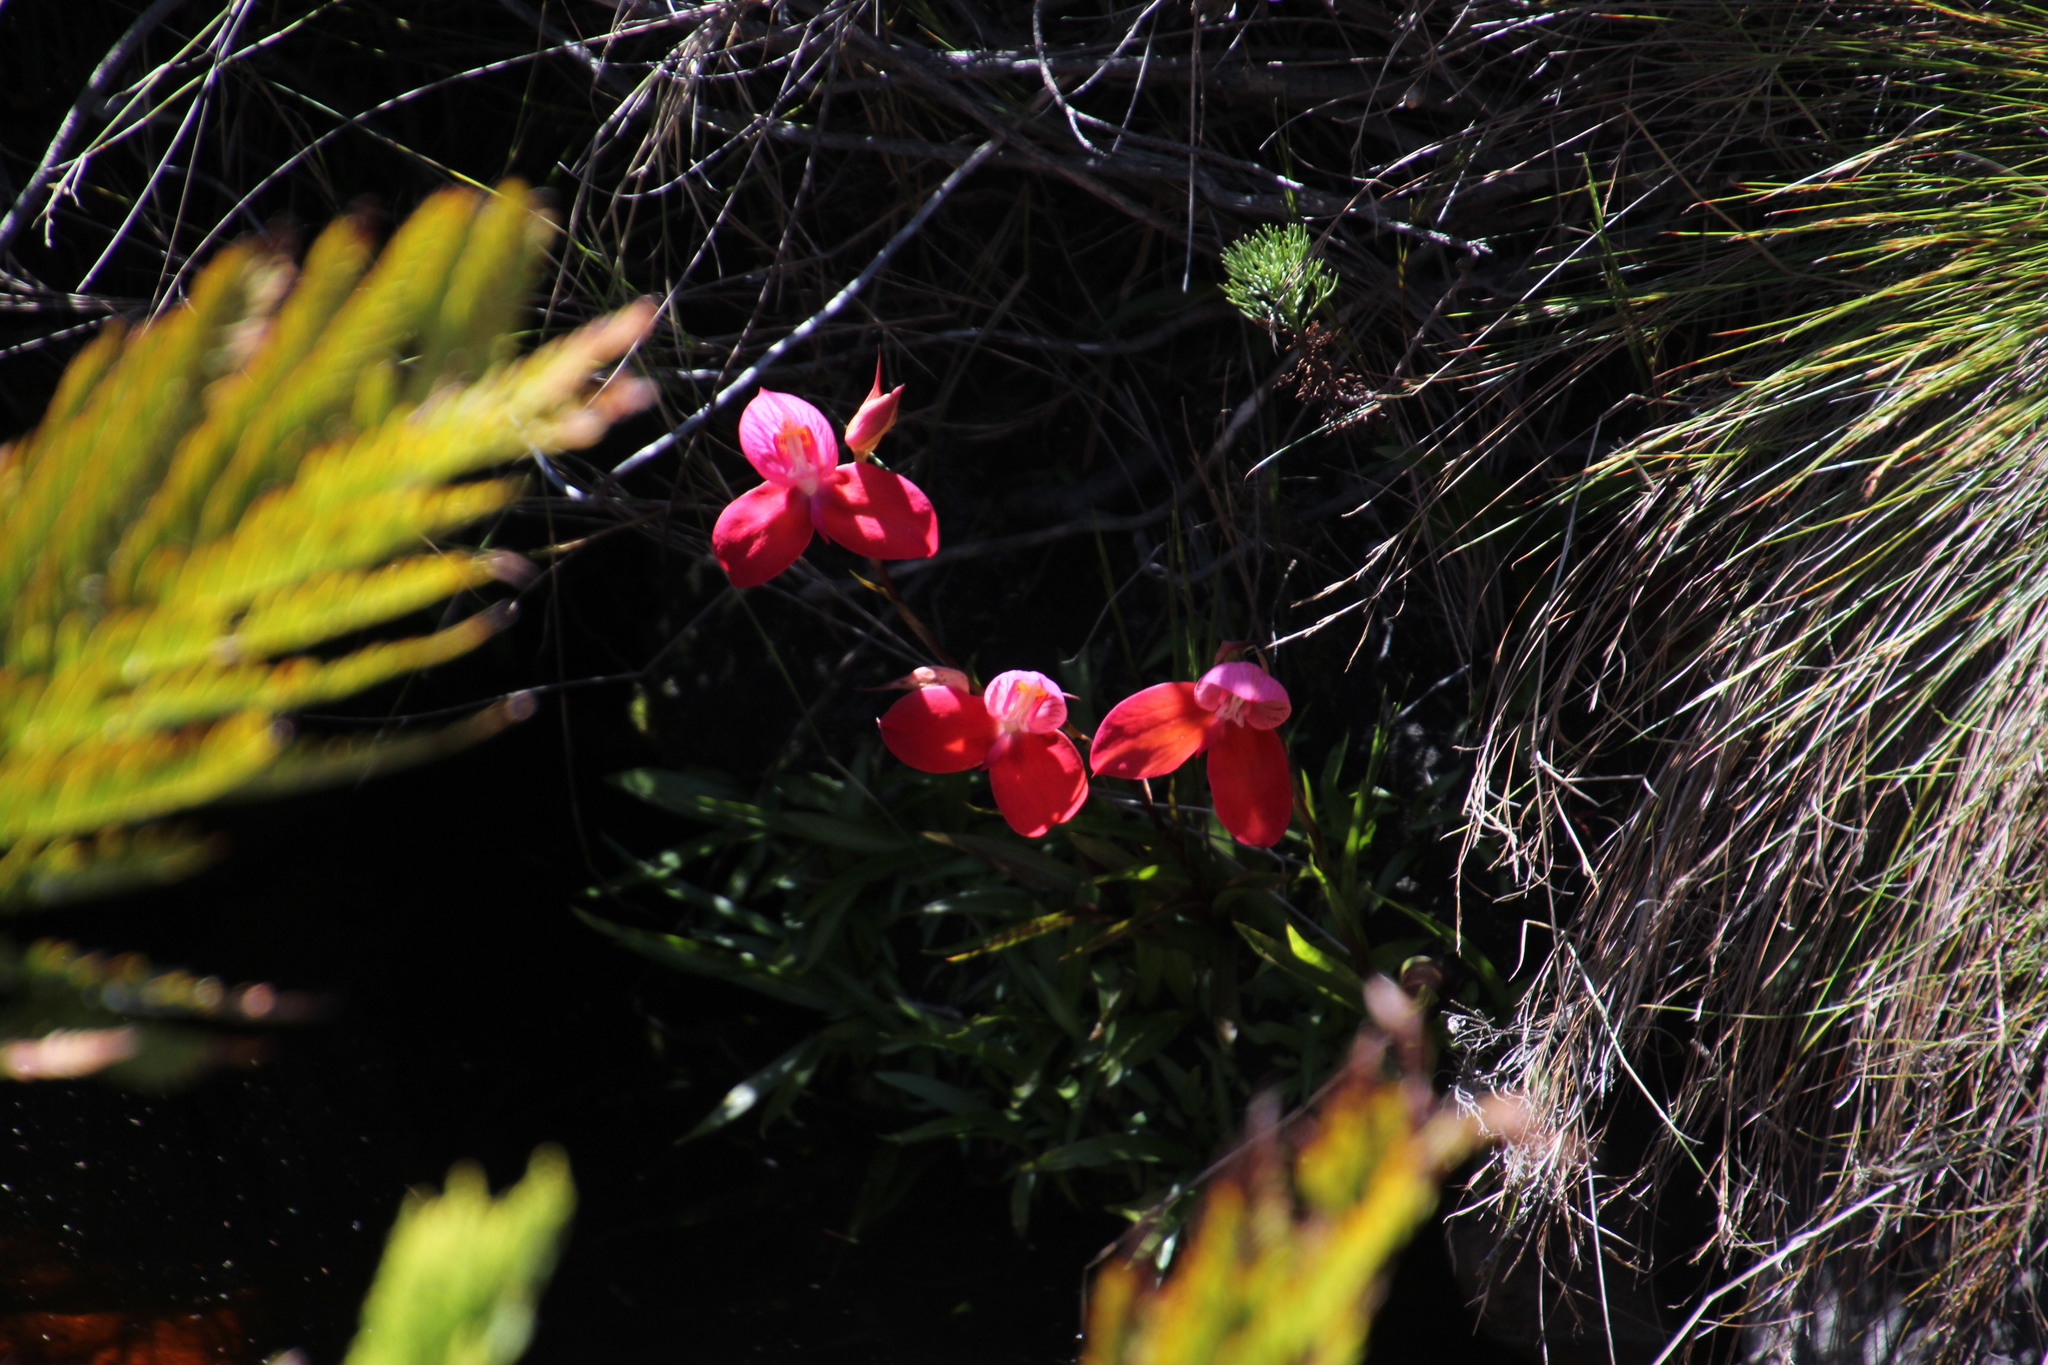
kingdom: Plantae
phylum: Tracheophyta
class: Liliopsida
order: Asparagales
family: Orchidaceae
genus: Disa
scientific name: Disa uniflora
